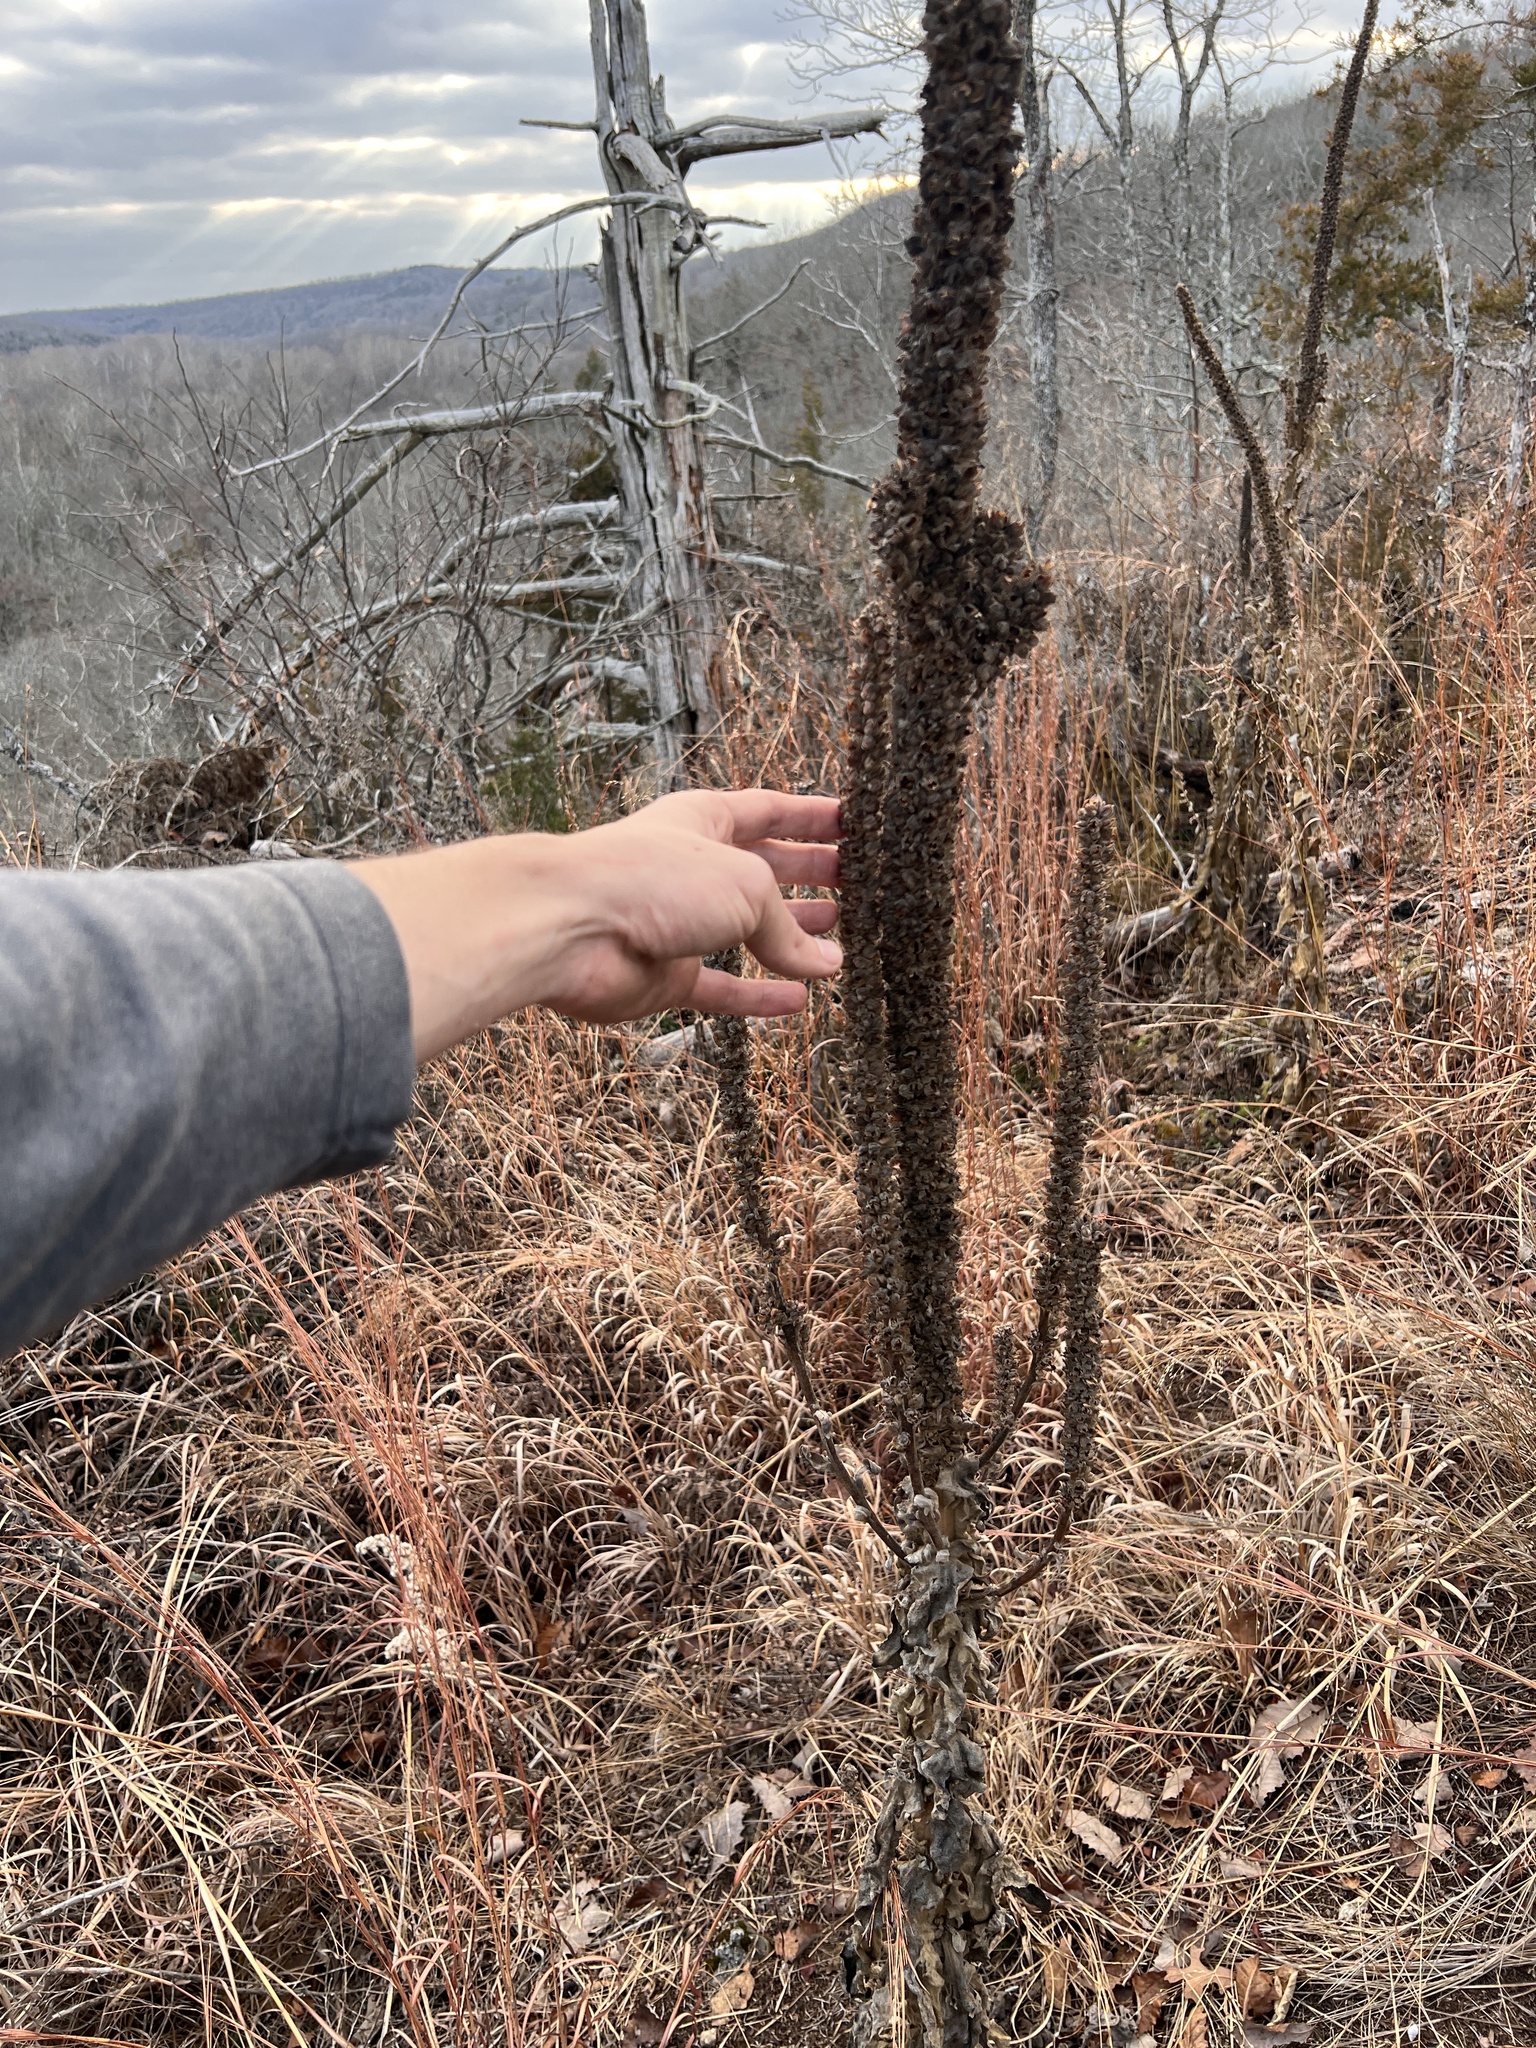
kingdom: Plantae
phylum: Tracheophyta
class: Magnoliopsida
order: Lamiales
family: Scrophulariaceae
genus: Verbascum
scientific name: Verbascum thapsus
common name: Common mullein
